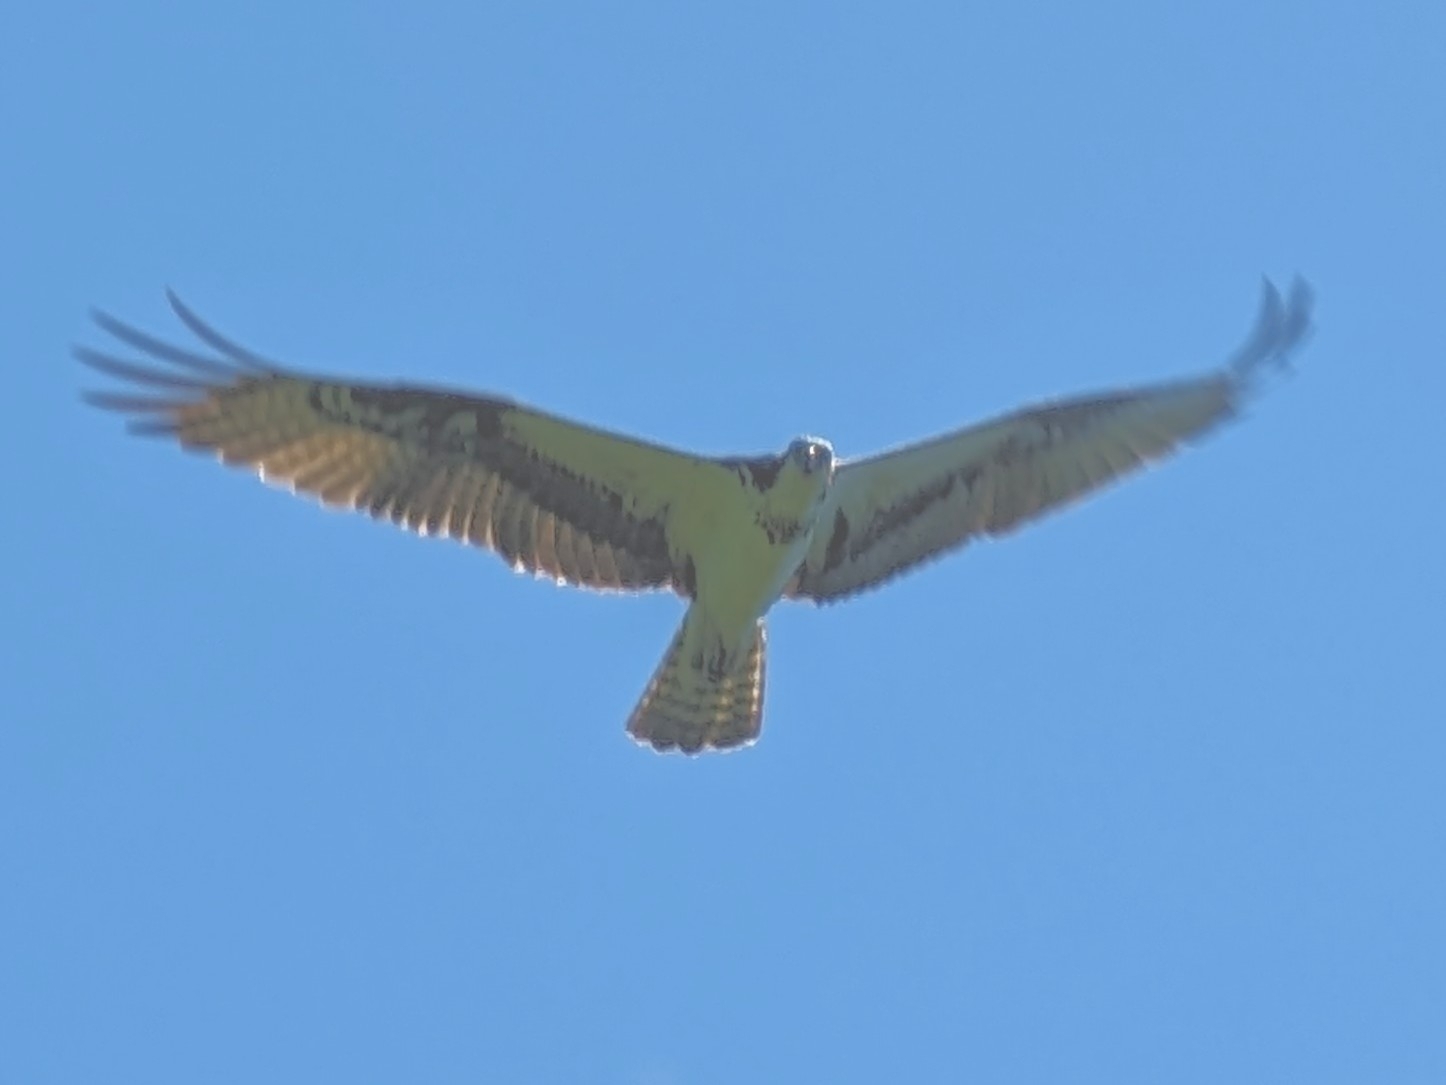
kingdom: Animalia
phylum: Chordata
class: Aves
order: Accipitriformes
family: Pandionidae
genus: Pandion
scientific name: Pandion haliaetus
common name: Osprey
